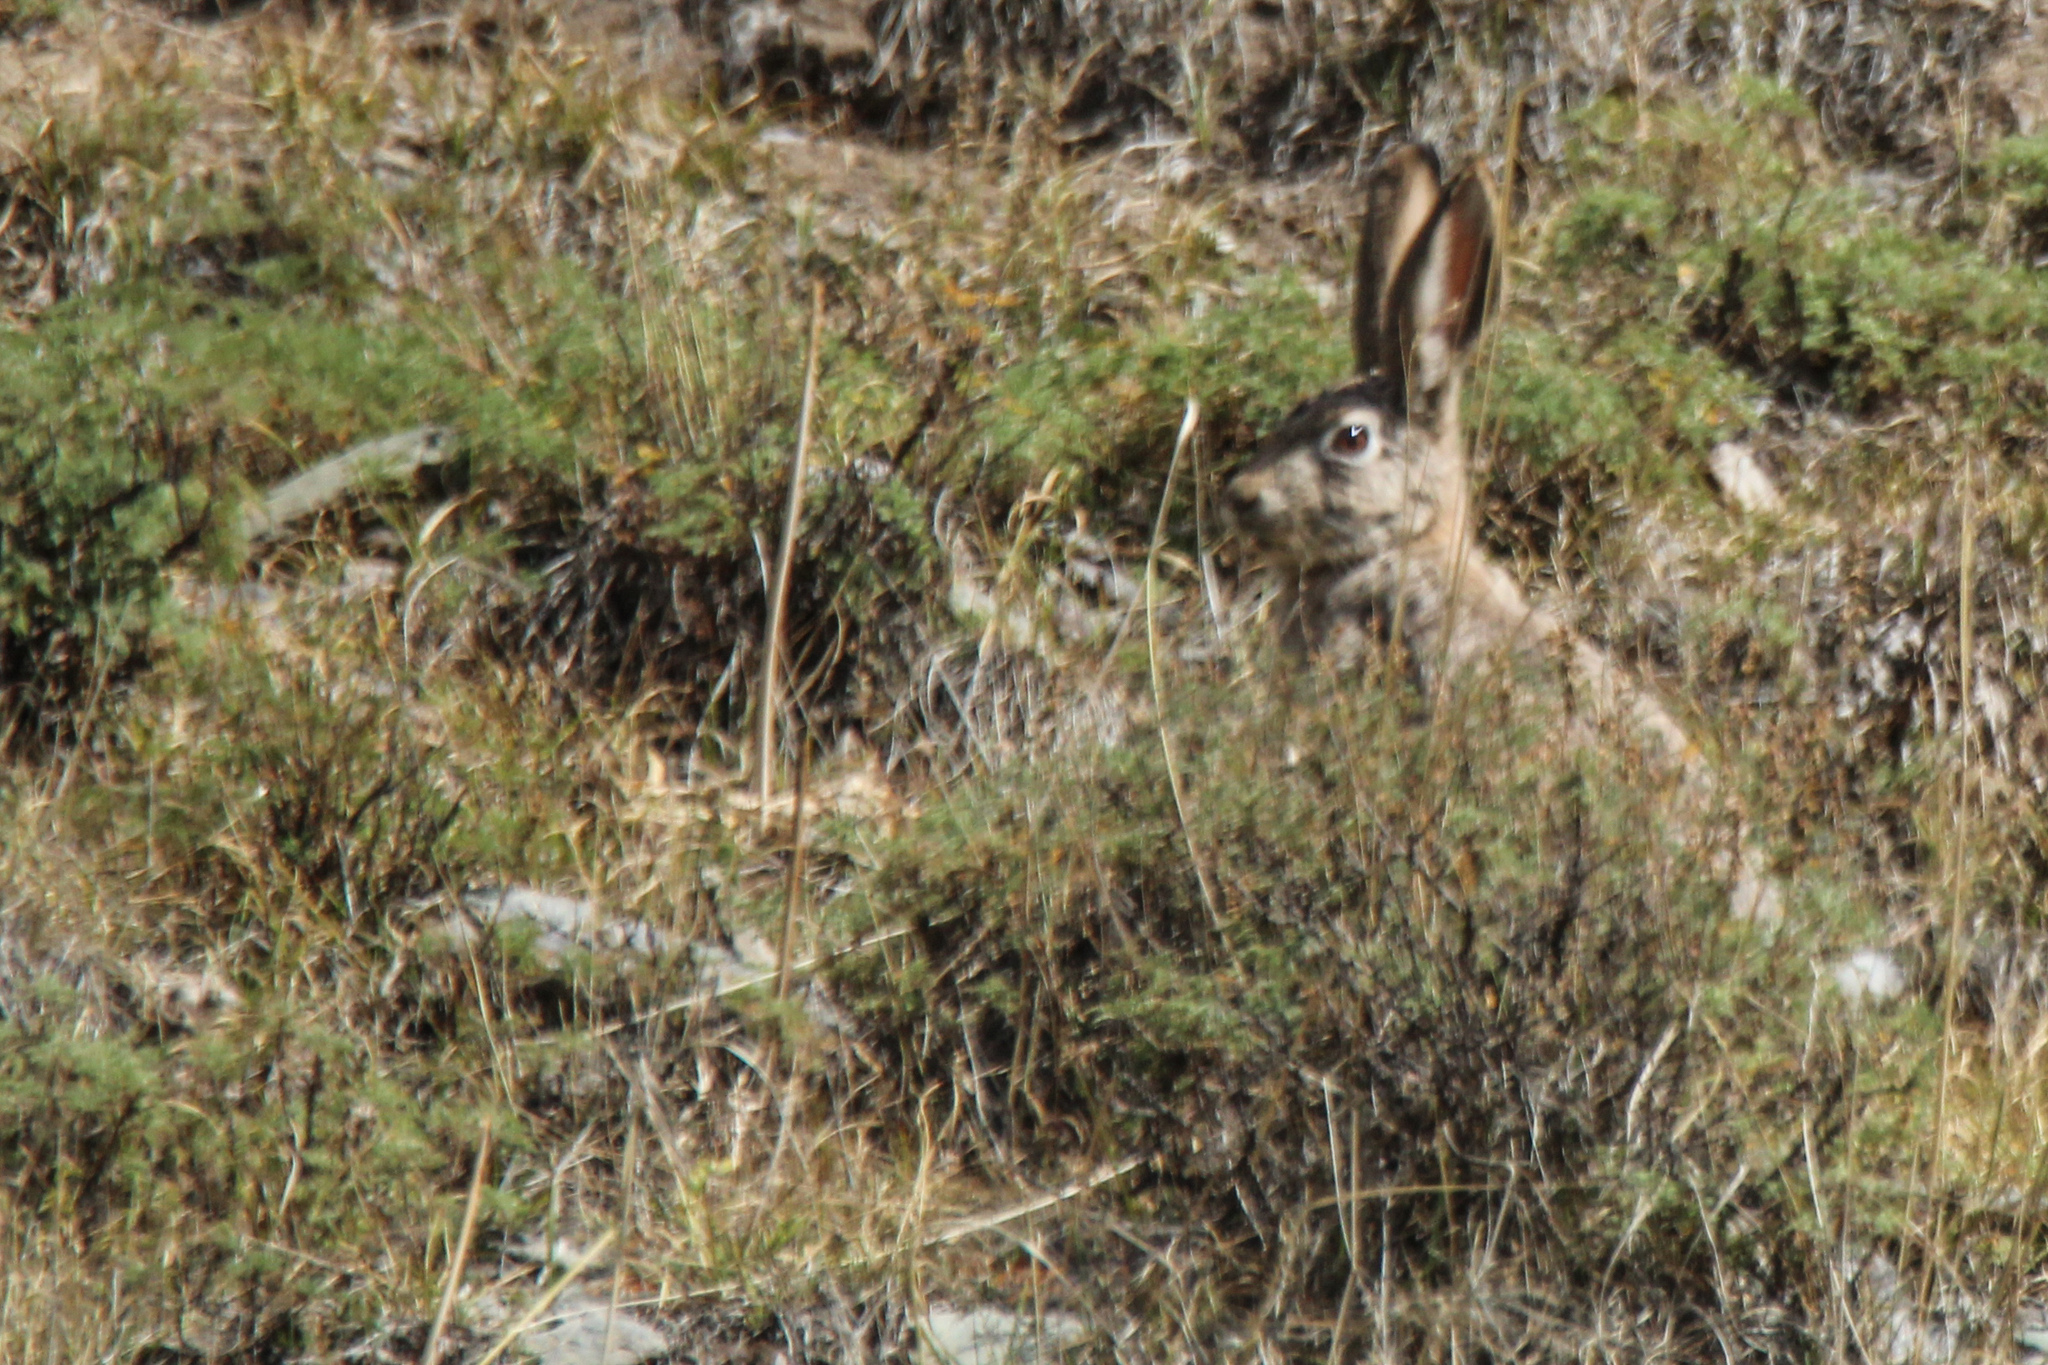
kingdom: Animalia
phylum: Chordata
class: Mammalia
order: Lagomorpha
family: Leporidae
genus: Lepus
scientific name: Lepus tolai
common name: Tolai hare
